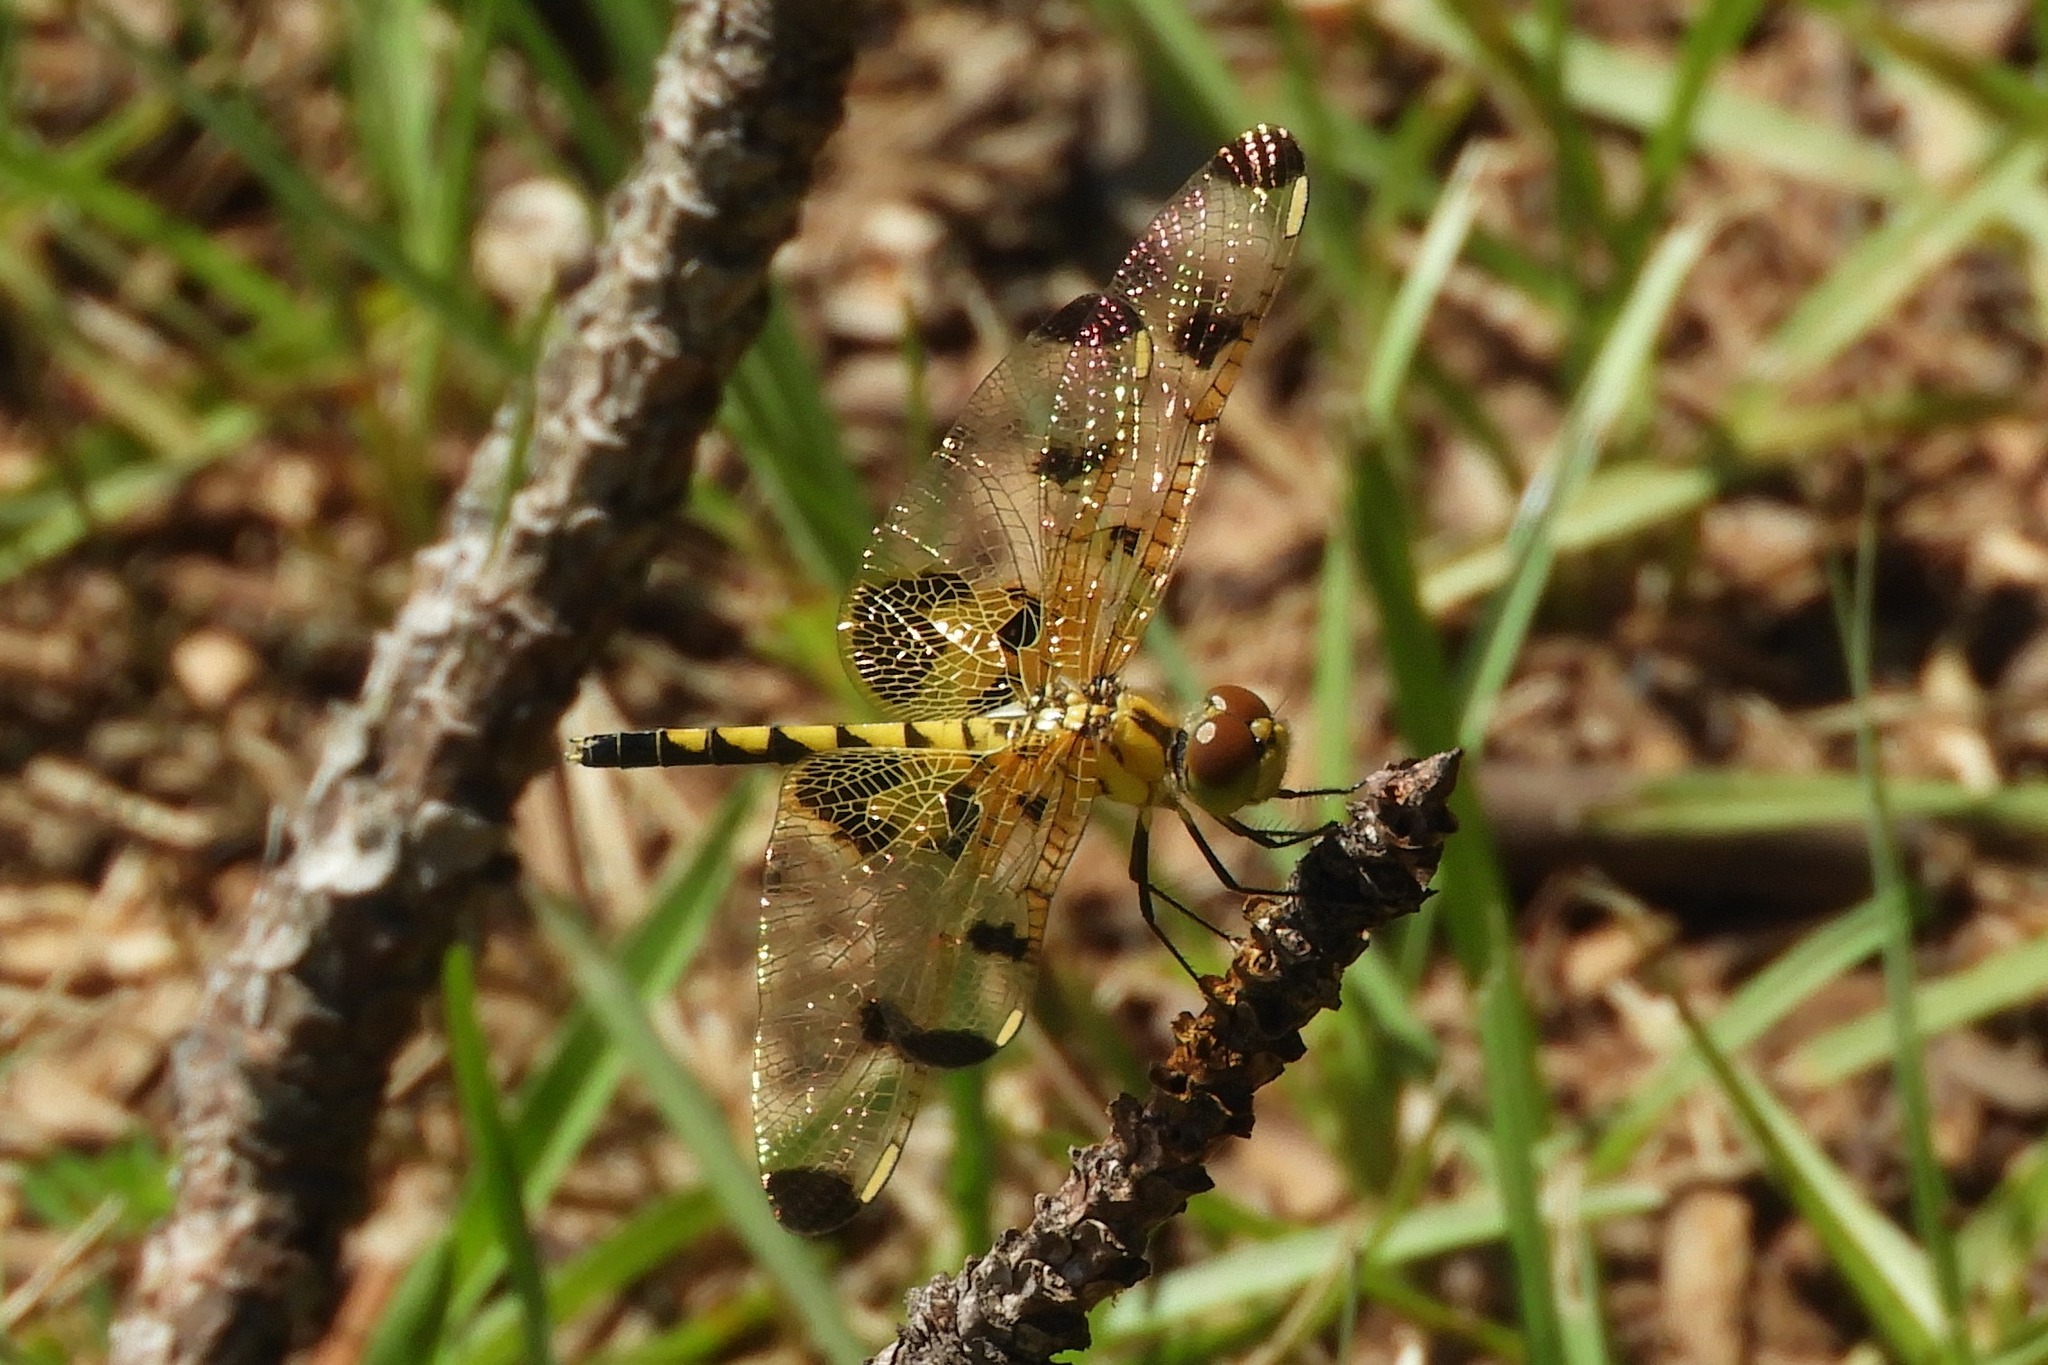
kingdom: Animalia
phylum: Arthropoda
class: Insecta
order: Odonata
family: Libellulidae
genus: Celithemis
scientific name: Celithemis elisa
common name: Calico pennant
